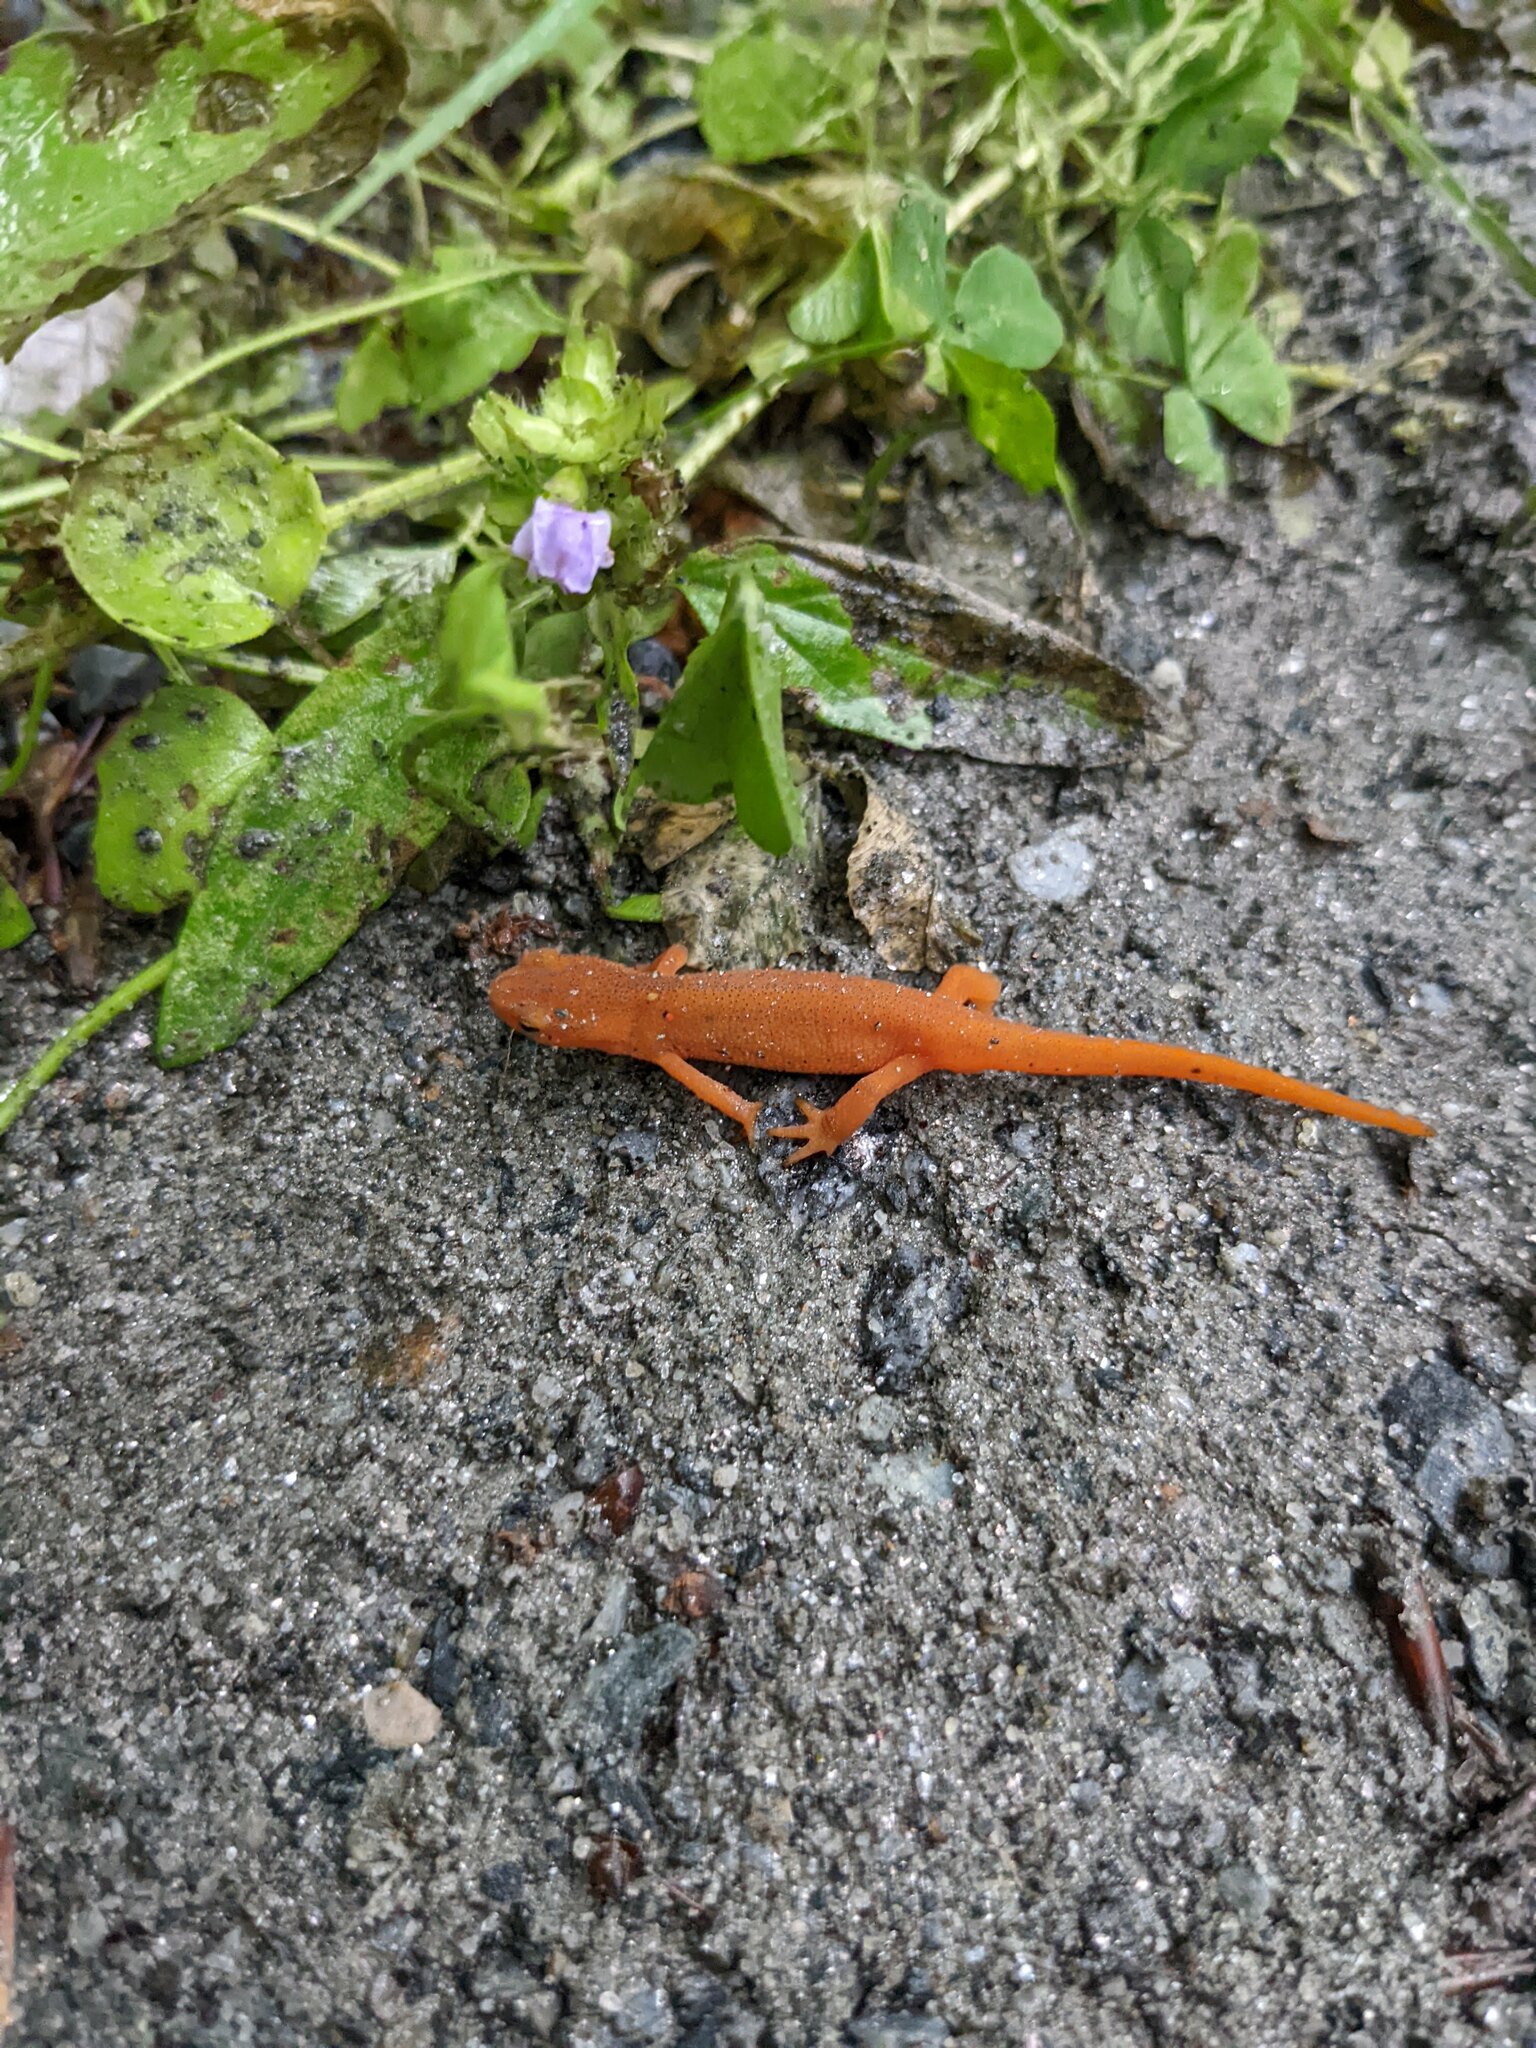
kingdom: Animalia
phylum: Chordata
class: Amphibia
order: Caudata
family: Salamandridae
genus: Notophthalmus
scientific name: Notophthalmus viridescens
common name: Eastern newt
